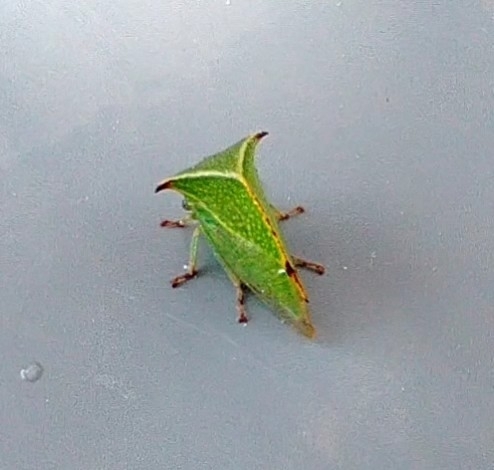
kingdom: Animalia
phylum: Arthropoda
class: Insecta
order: Hemiptera
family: Membracidae
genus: Stictocephala
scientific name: Stictocephala bisonia
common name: American buffalo treehopper
